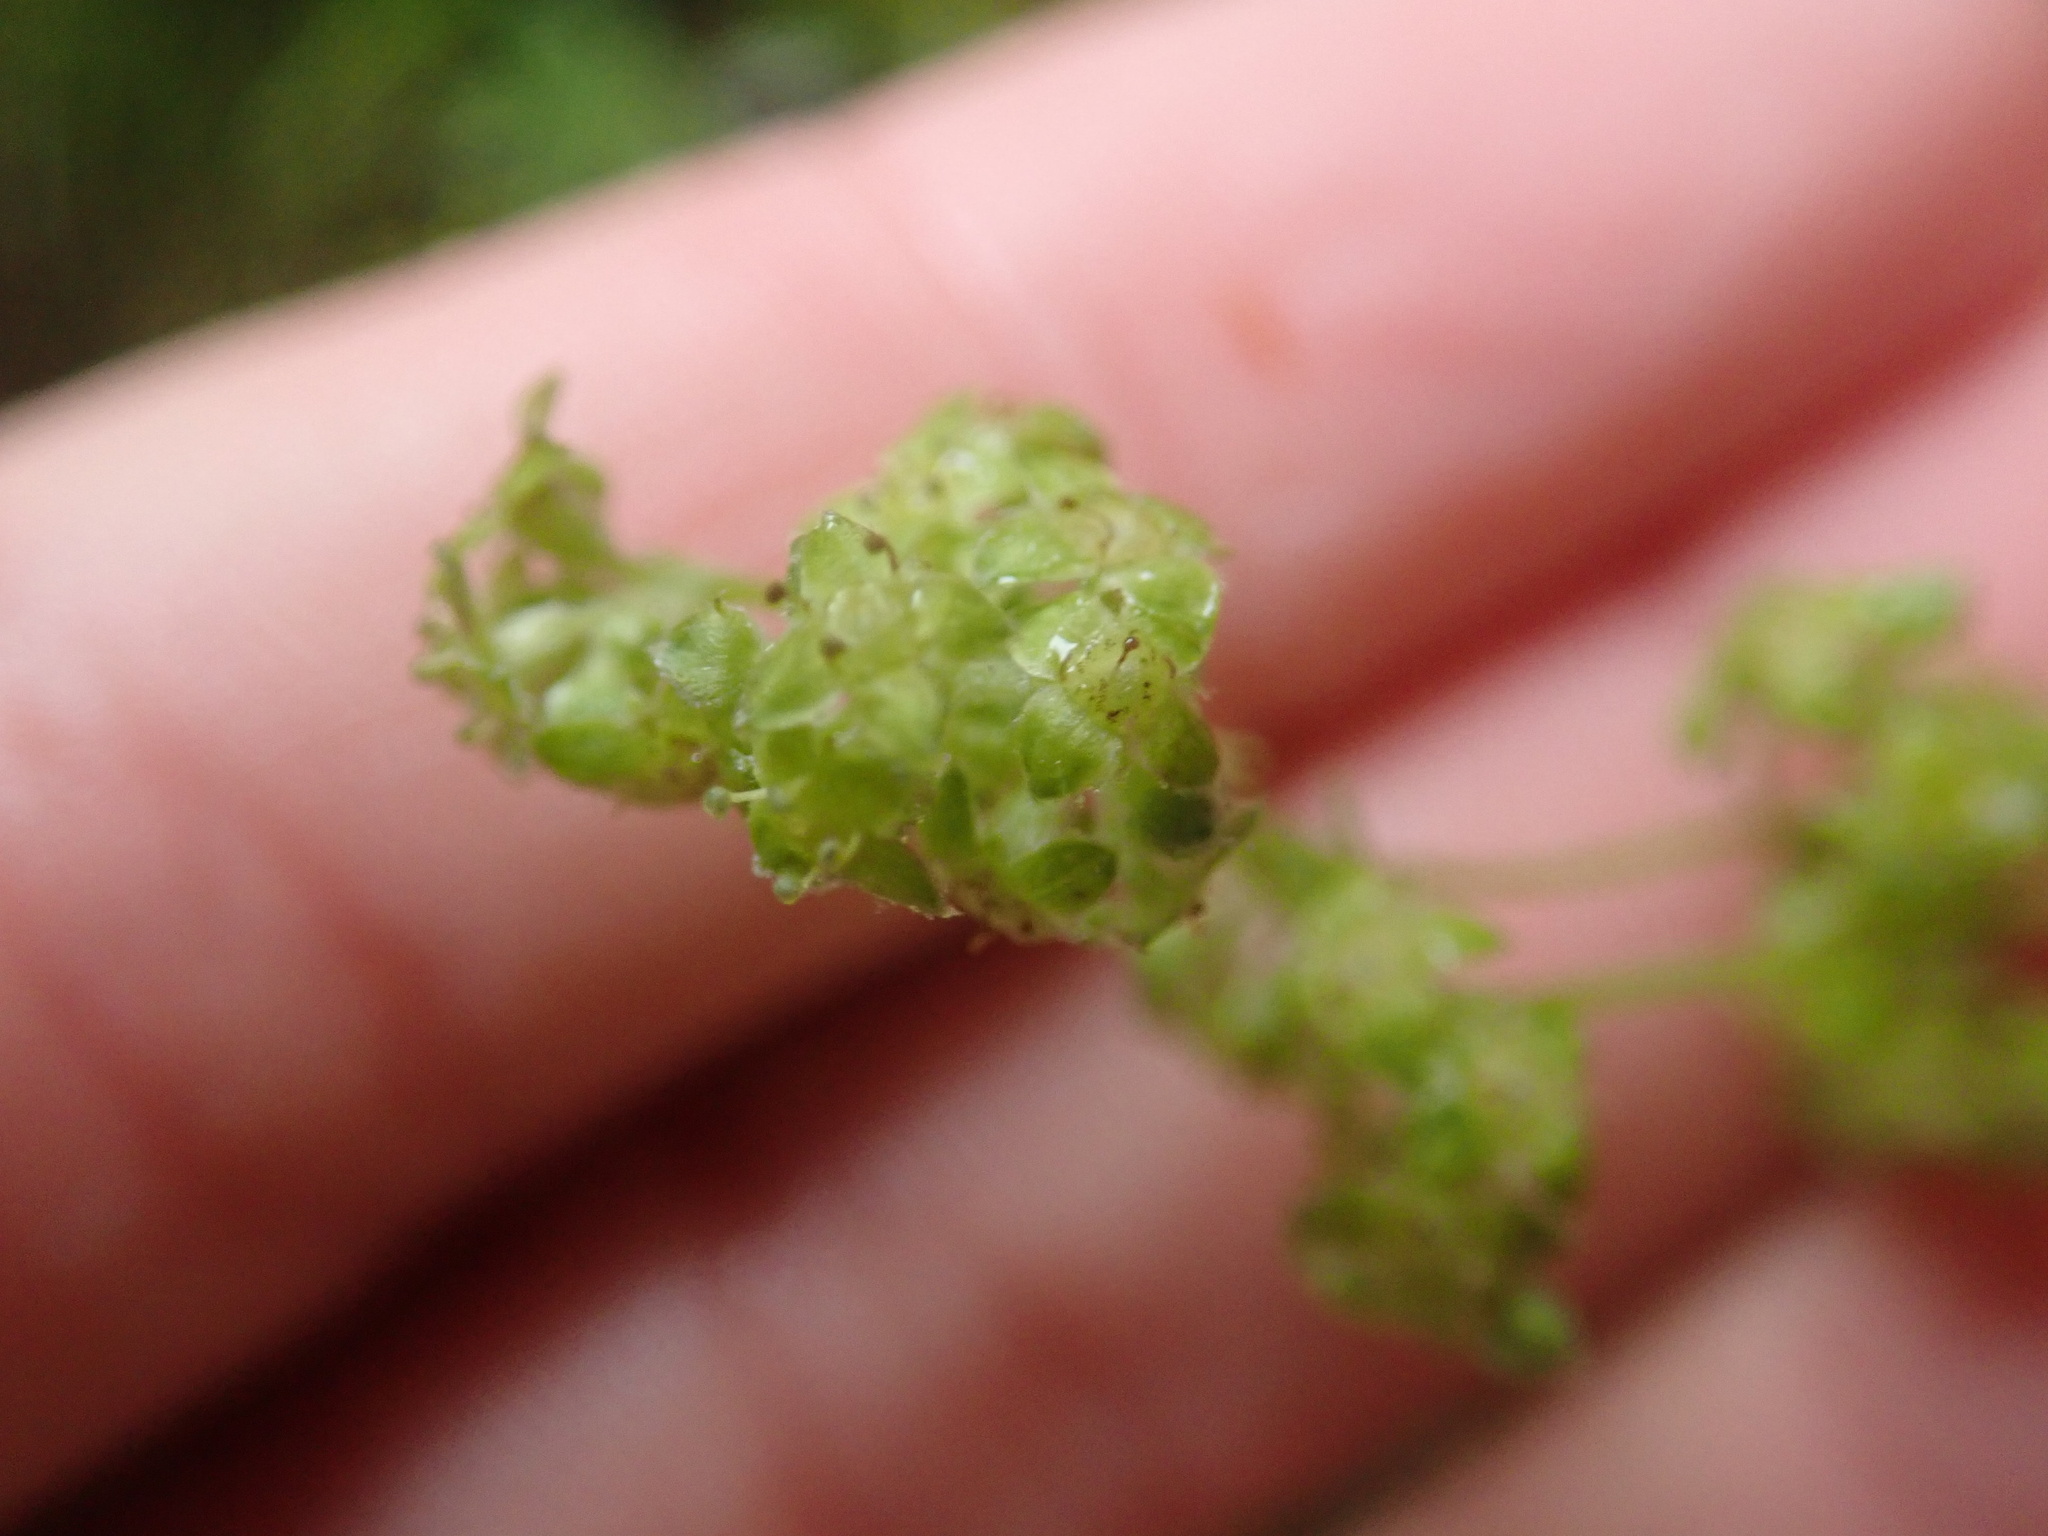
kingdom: Plantae
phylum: Tracheophyta
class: Magnoliopsida
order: Rosales
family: Rosaceae
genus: Alchemilla
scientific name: Alchemilla alpina
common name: Alpine lady's-mantle
